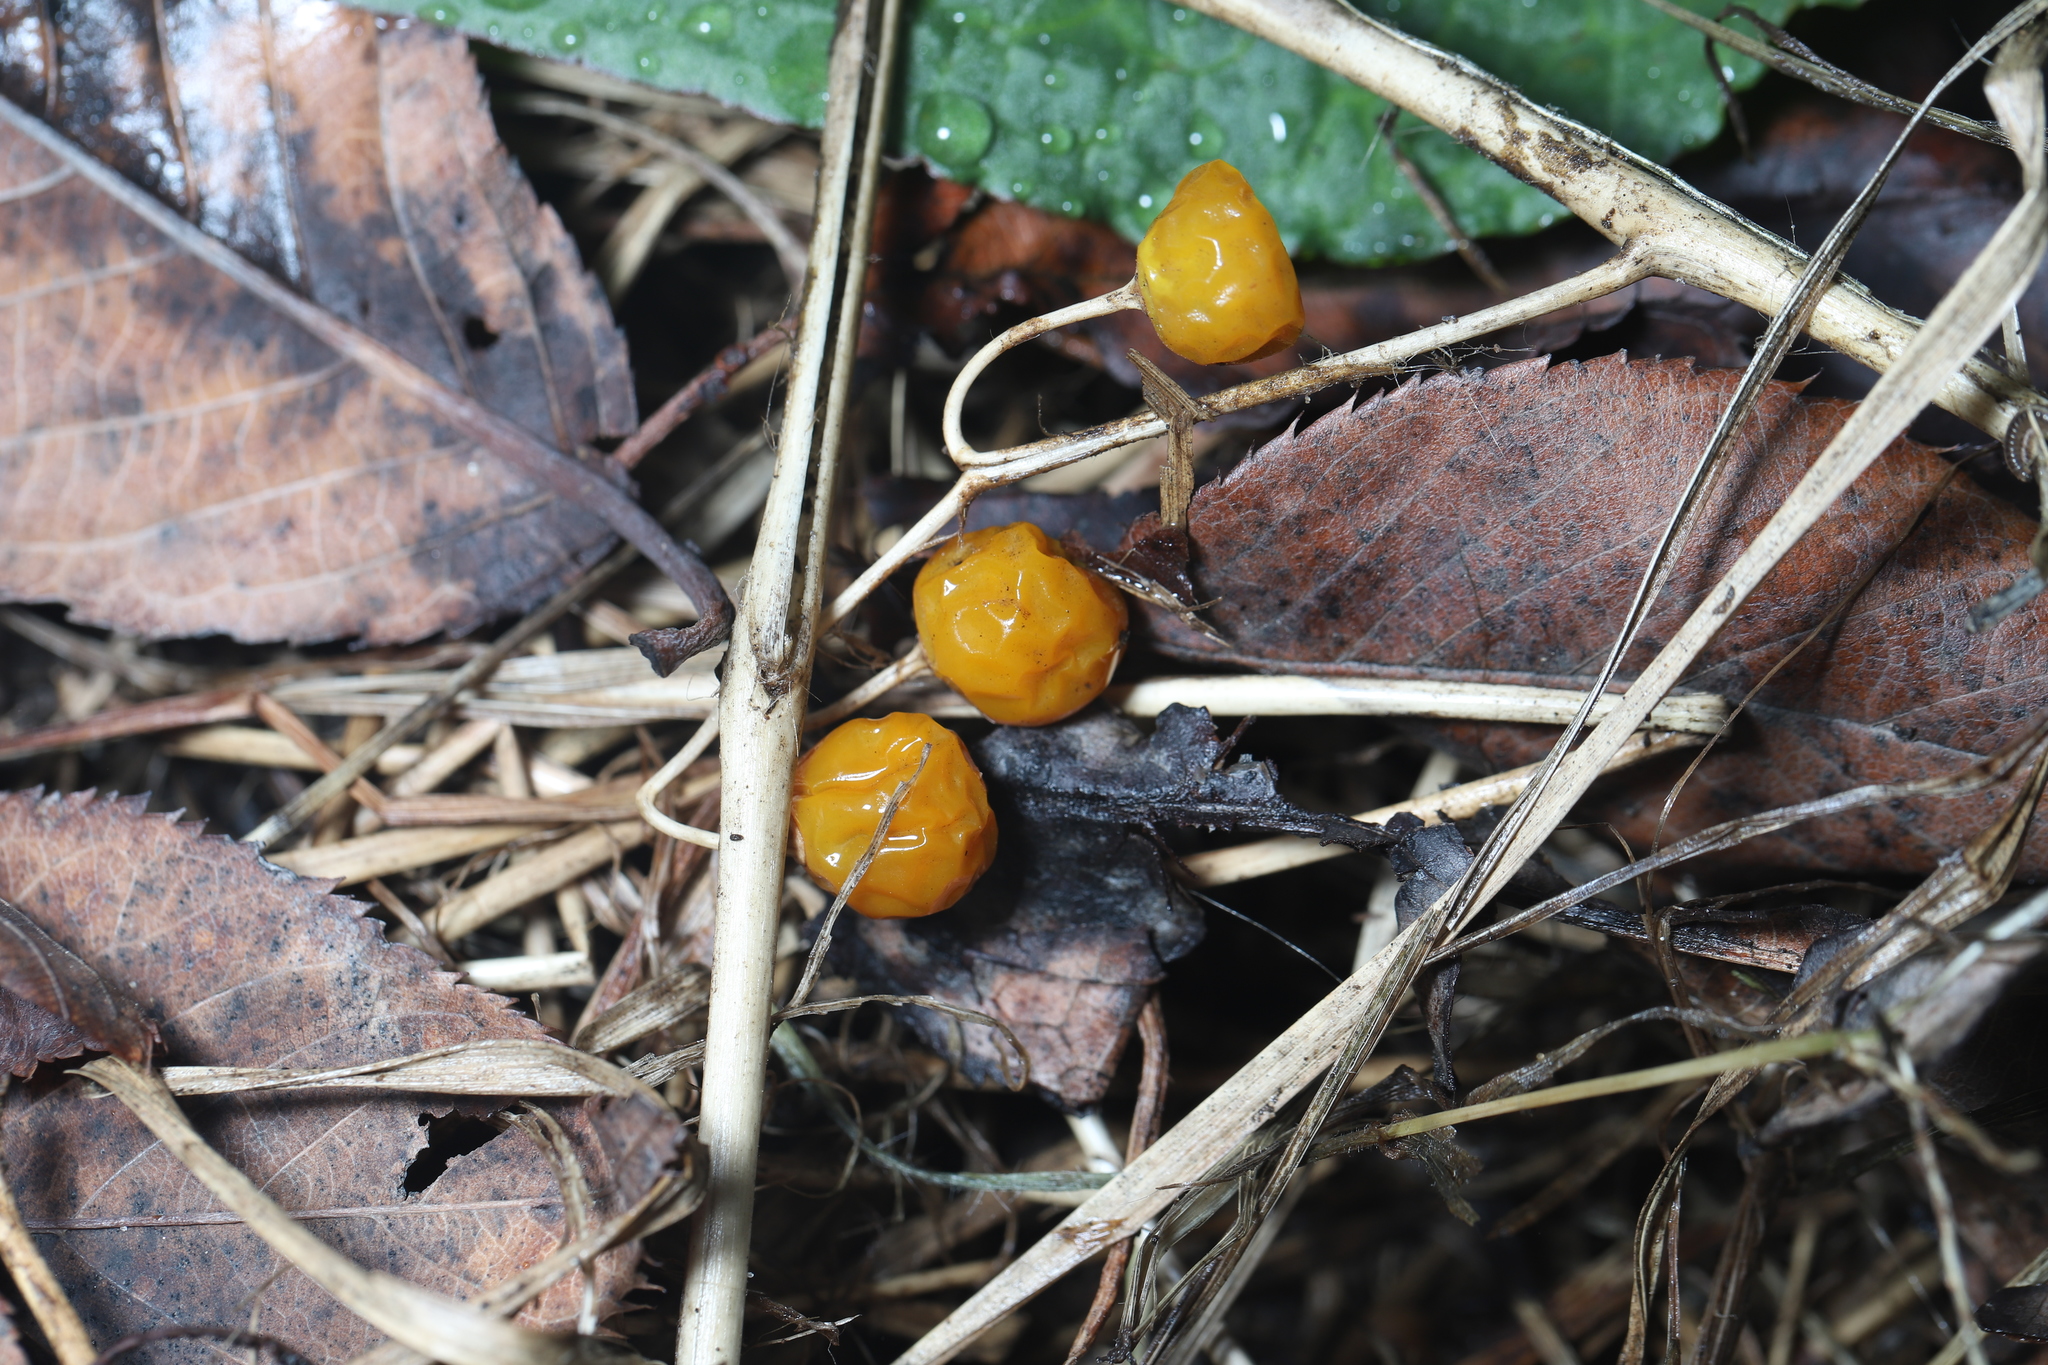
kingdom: Plantae
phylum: Tracheophyta
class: Magnoliopsida
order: Solanales
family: Solanaceae
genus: Solanum
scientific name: Solanum carolinense
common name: Horse-nettle
